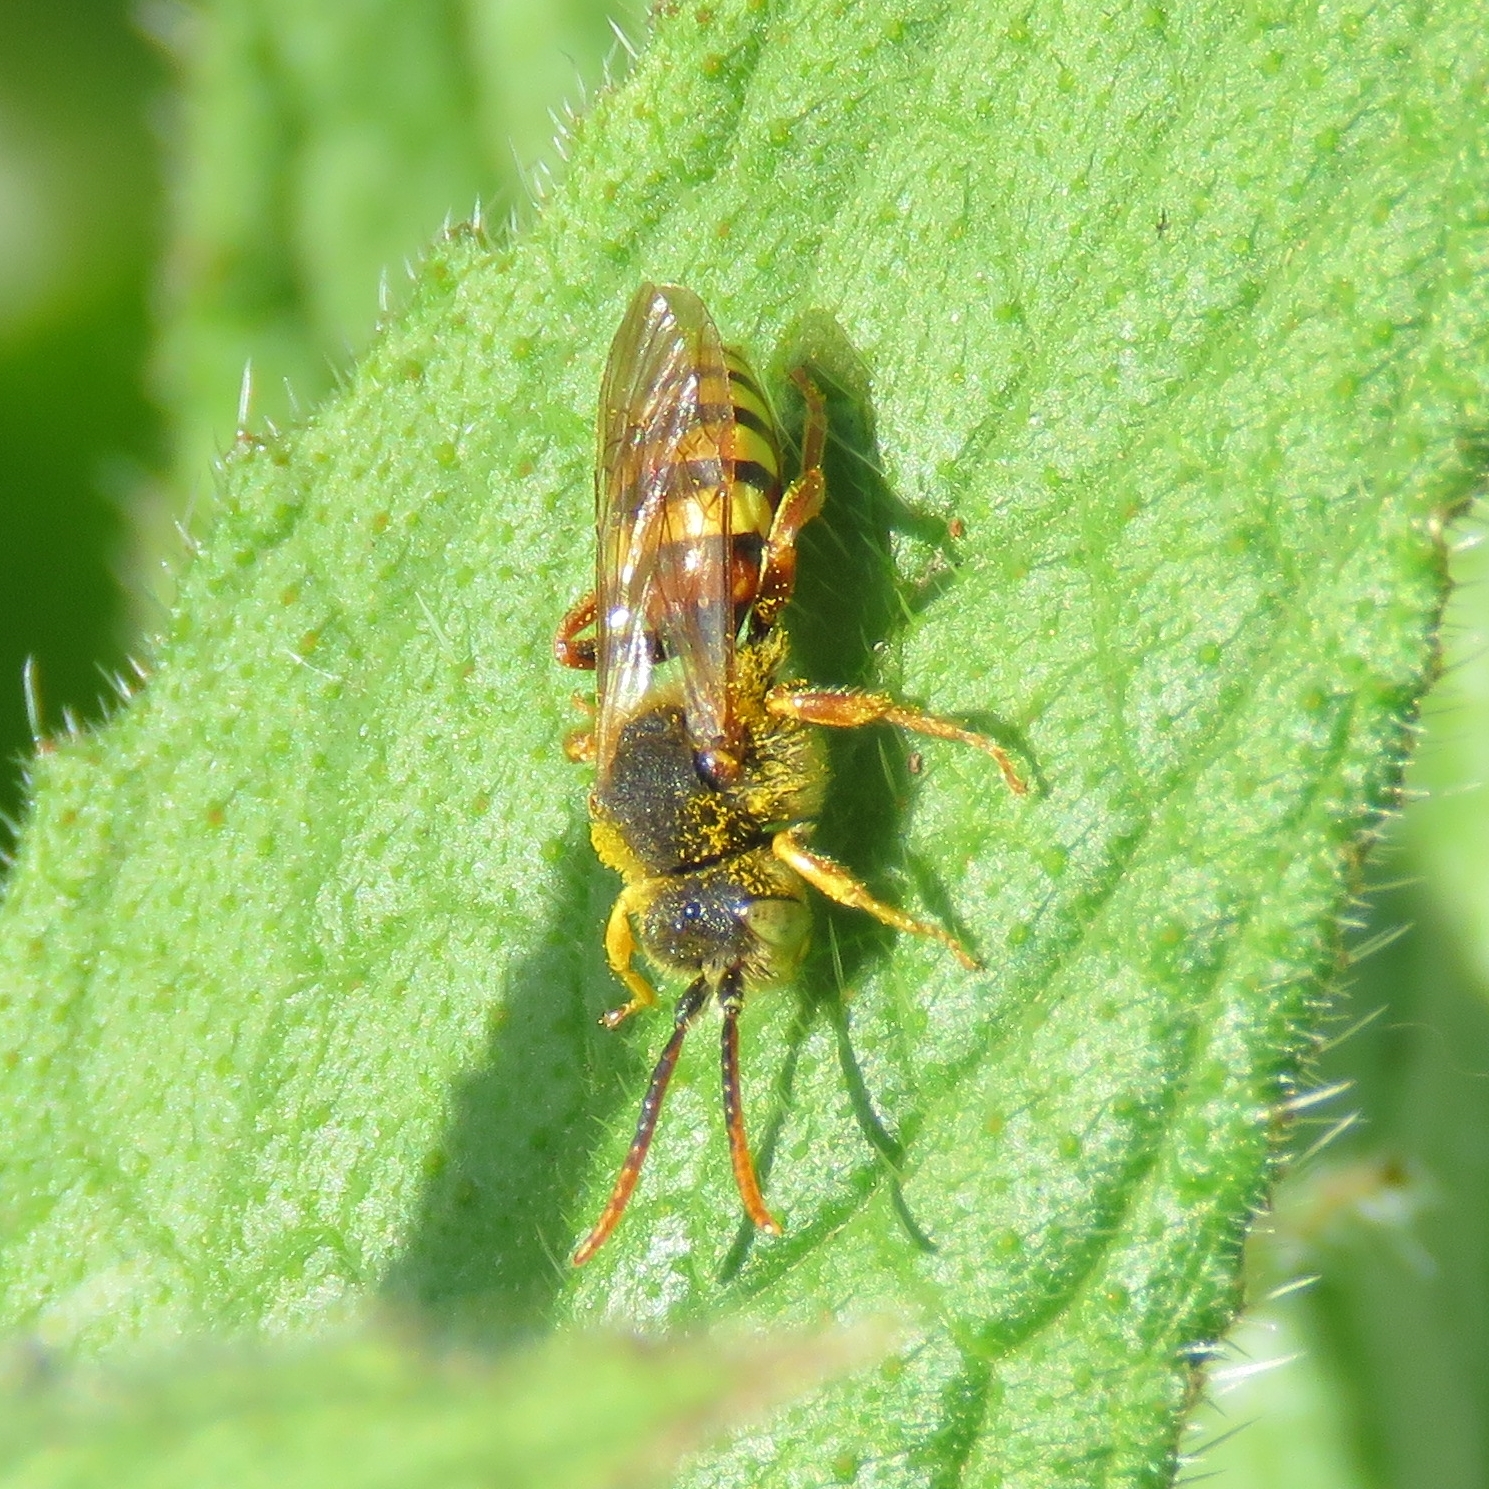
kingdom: Animalia
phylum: Arthropoda
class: Insecta
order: Hymenoptera
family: Apidae
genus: Nomada
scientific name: Nomada lathburiana
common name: Lathbury's nomad bee
